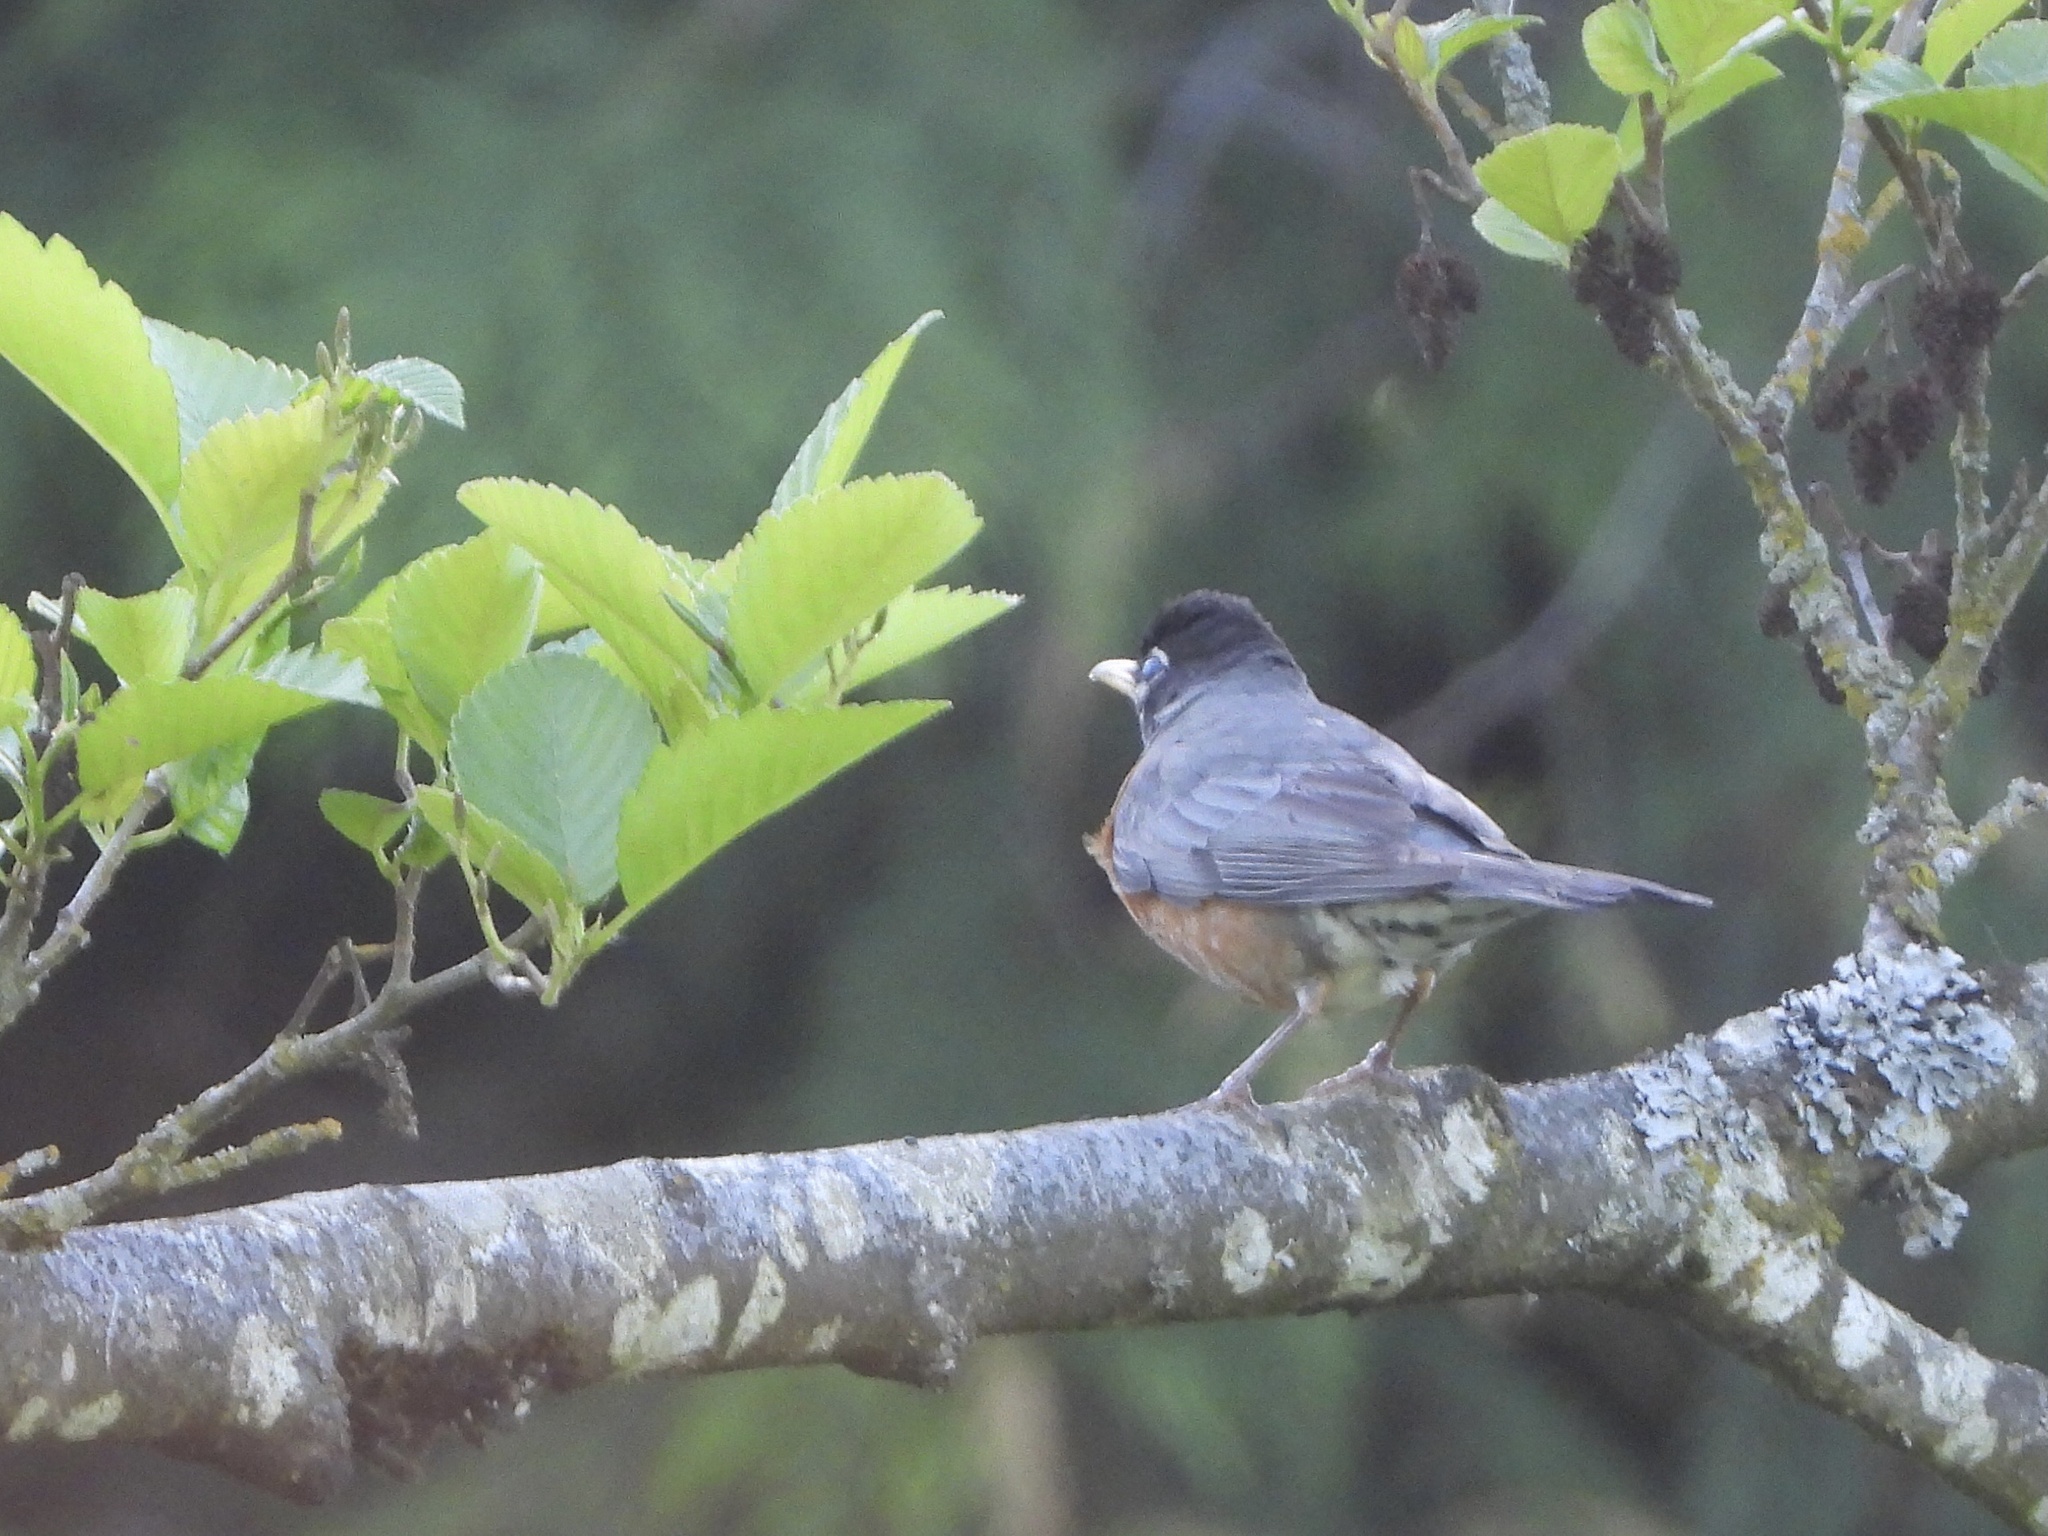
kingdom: Animalia
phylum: Chordata
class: Aves
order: Passeriformes
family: Turdidae
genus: Turdus
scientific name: Turdus migratorius
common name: American robin
